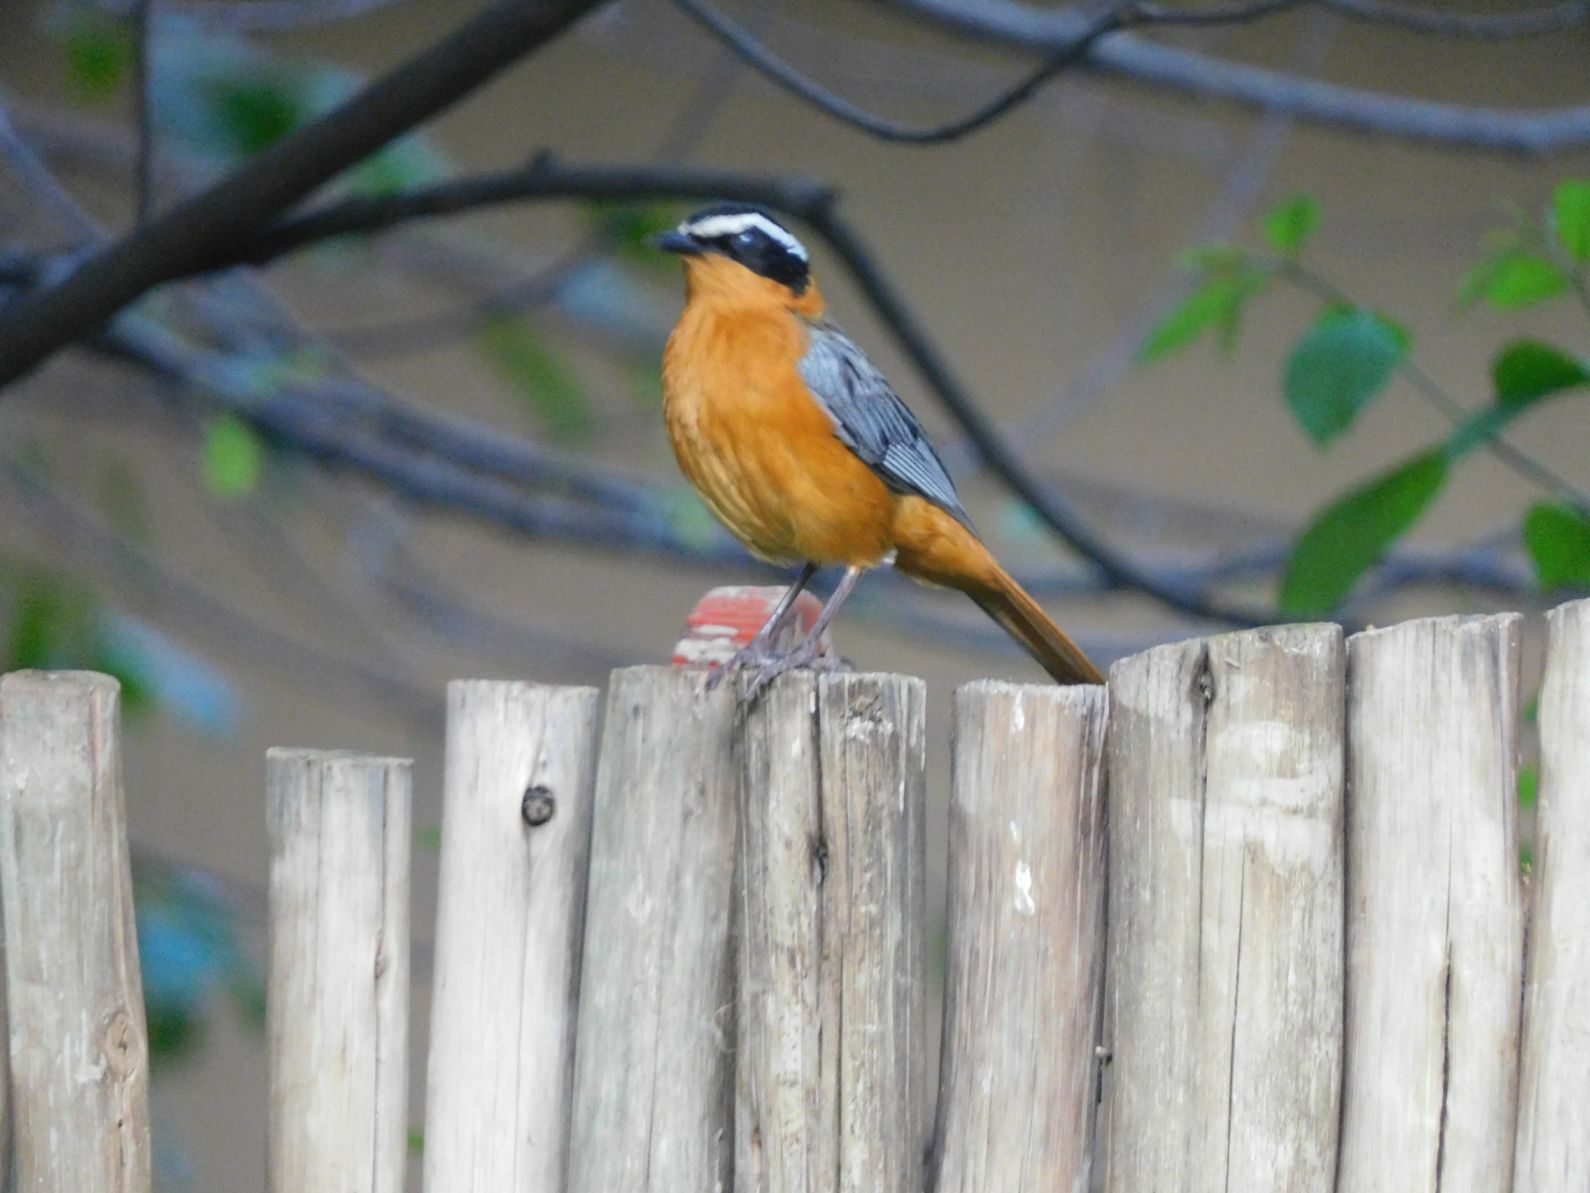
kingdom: Animalia
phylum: Chordata
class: Aves
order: Passeriformes
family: Muscicapidae
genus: Cossypha
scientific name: Cossypha heuglini
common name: White-browed robin-chat
